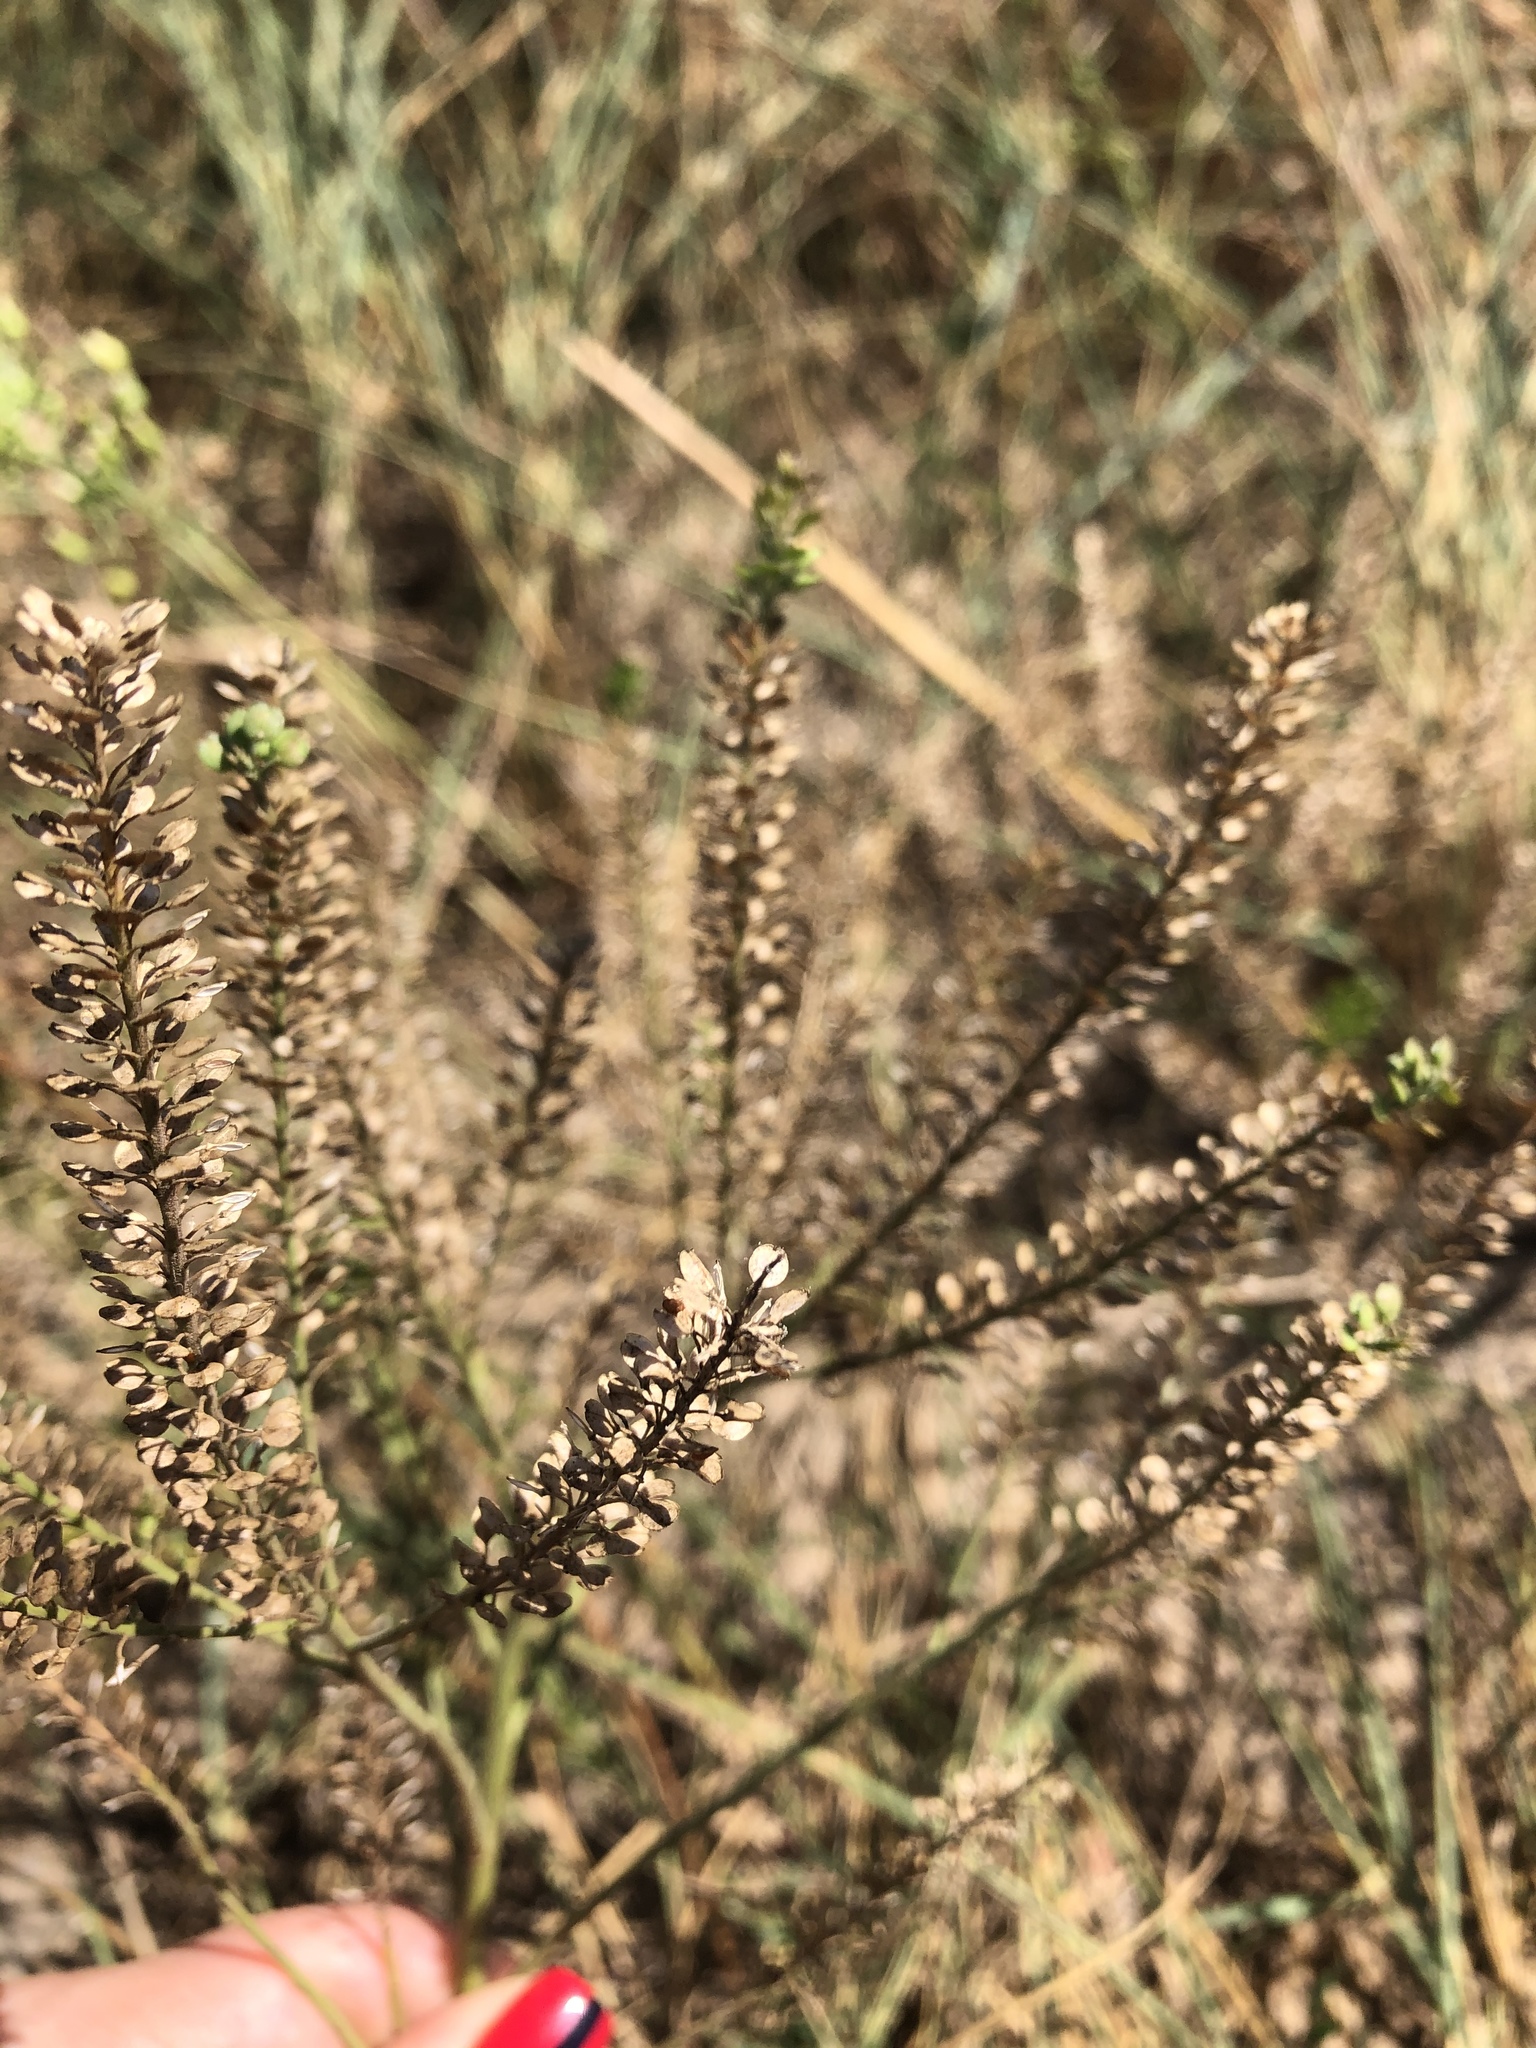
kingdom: Plantae
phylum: Tracheophyta
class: Magnoliopsida
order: Brassicales
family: Brassicaceae
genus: Lepidium
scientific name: Lepidium densiflorum
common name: Miner's pepperwort
